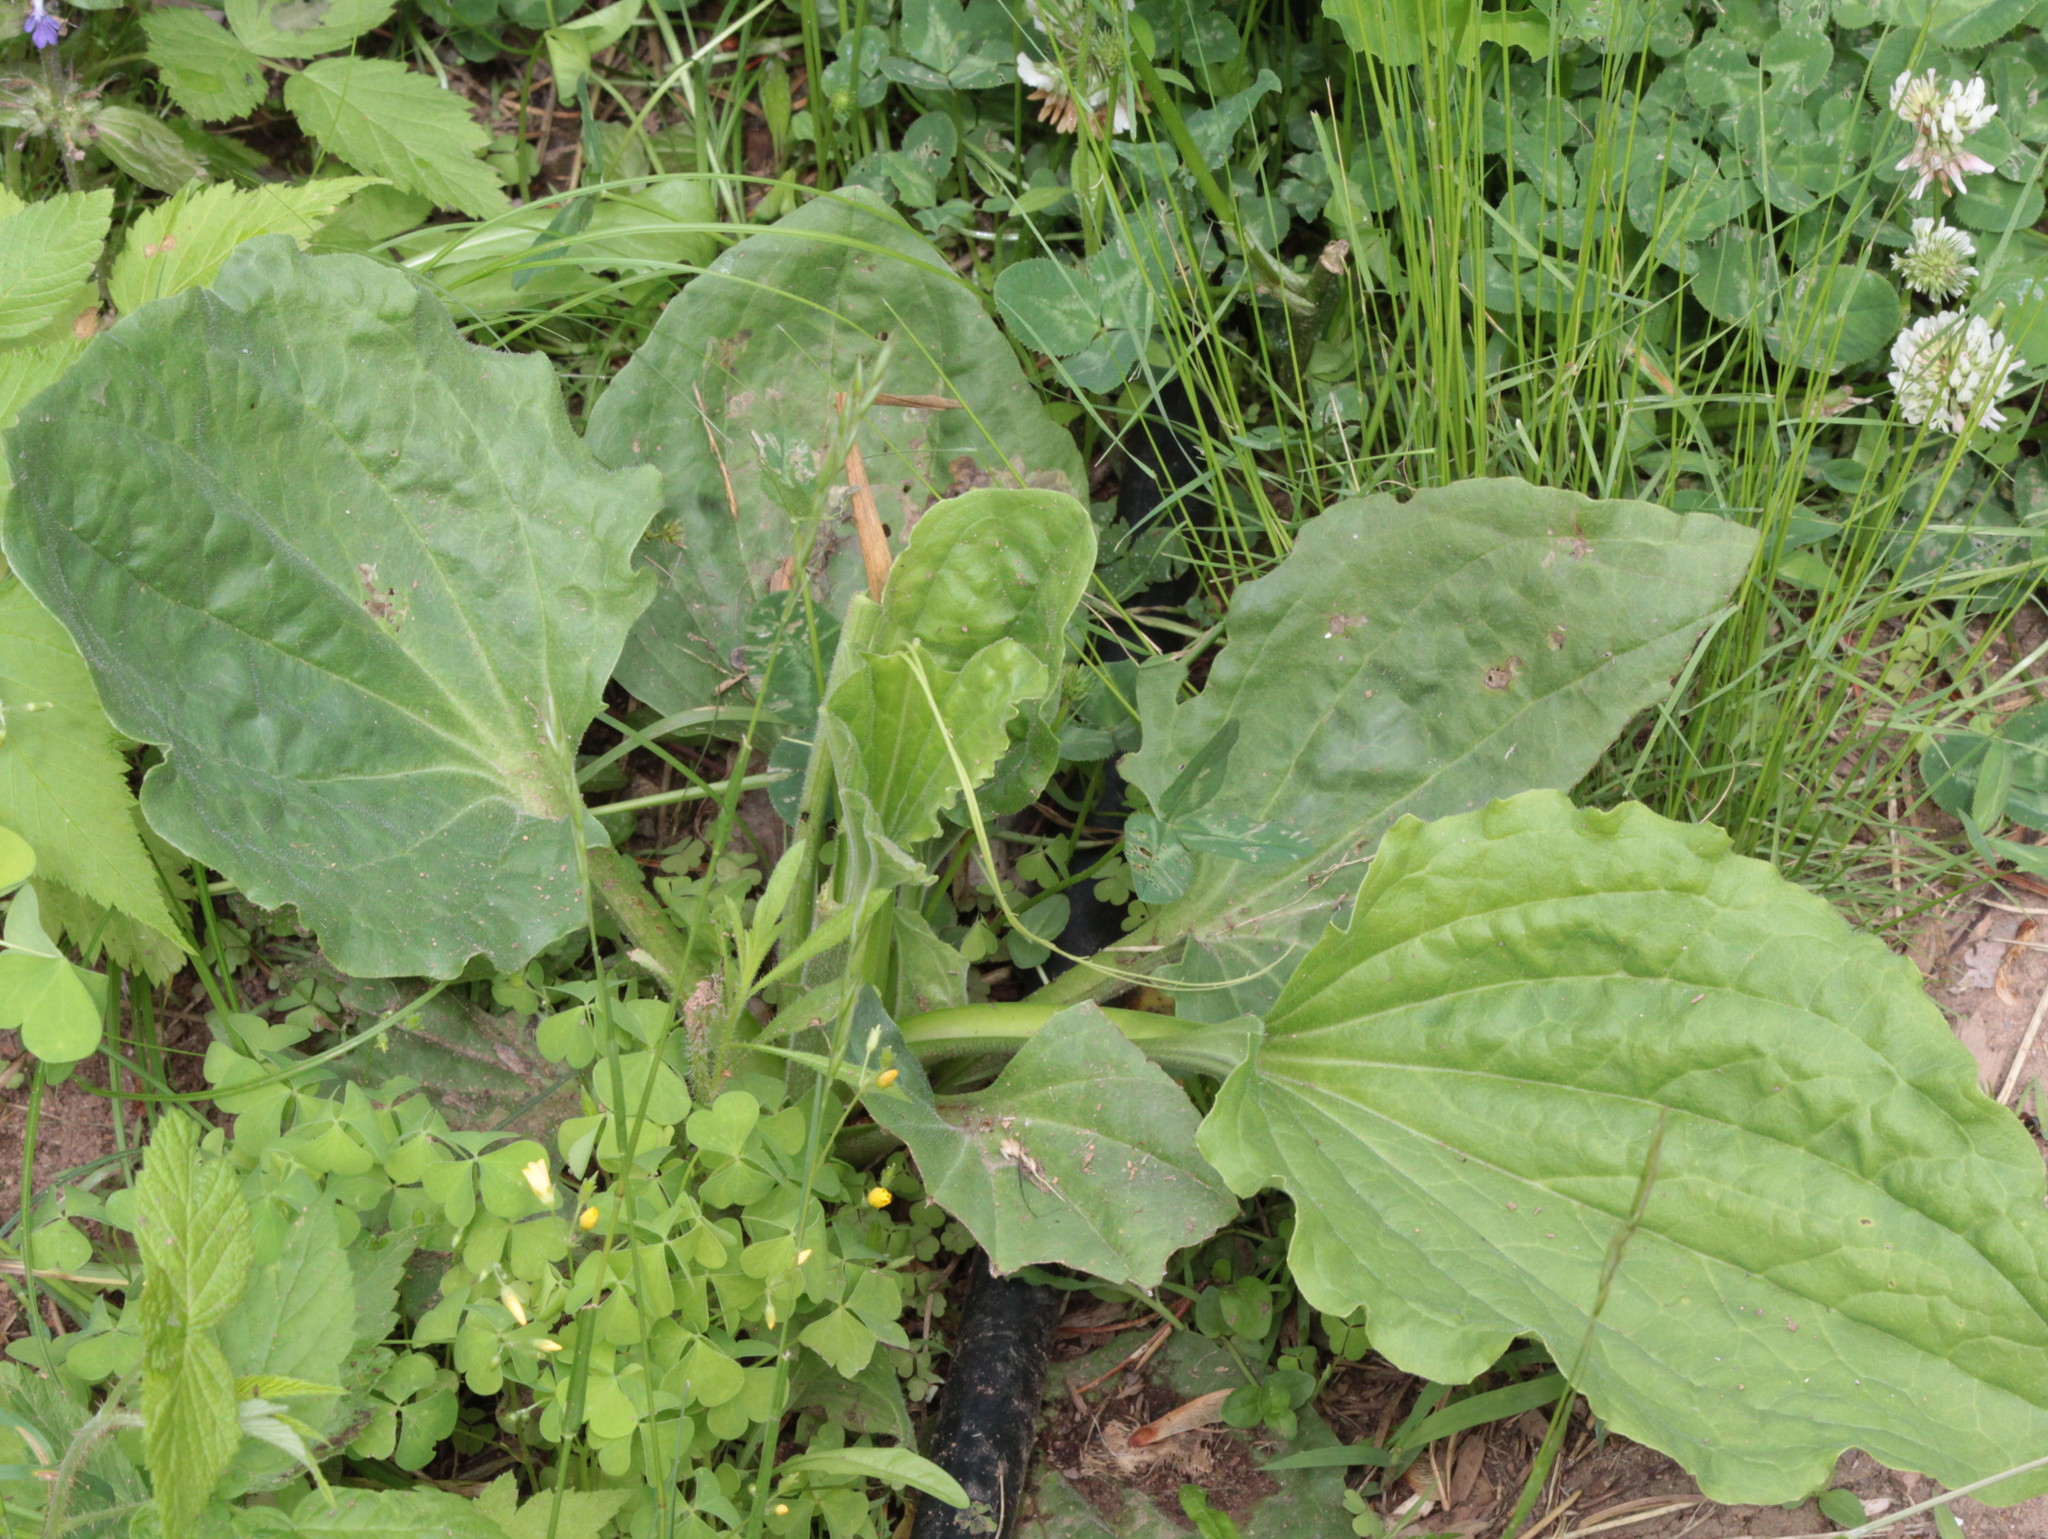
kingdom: Plantae
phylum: Tracheophyta
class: Magnoliopsida
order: Lamiales
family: Plantaginaceae
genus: Plantago
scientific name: Plantago major
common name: Common plantain
